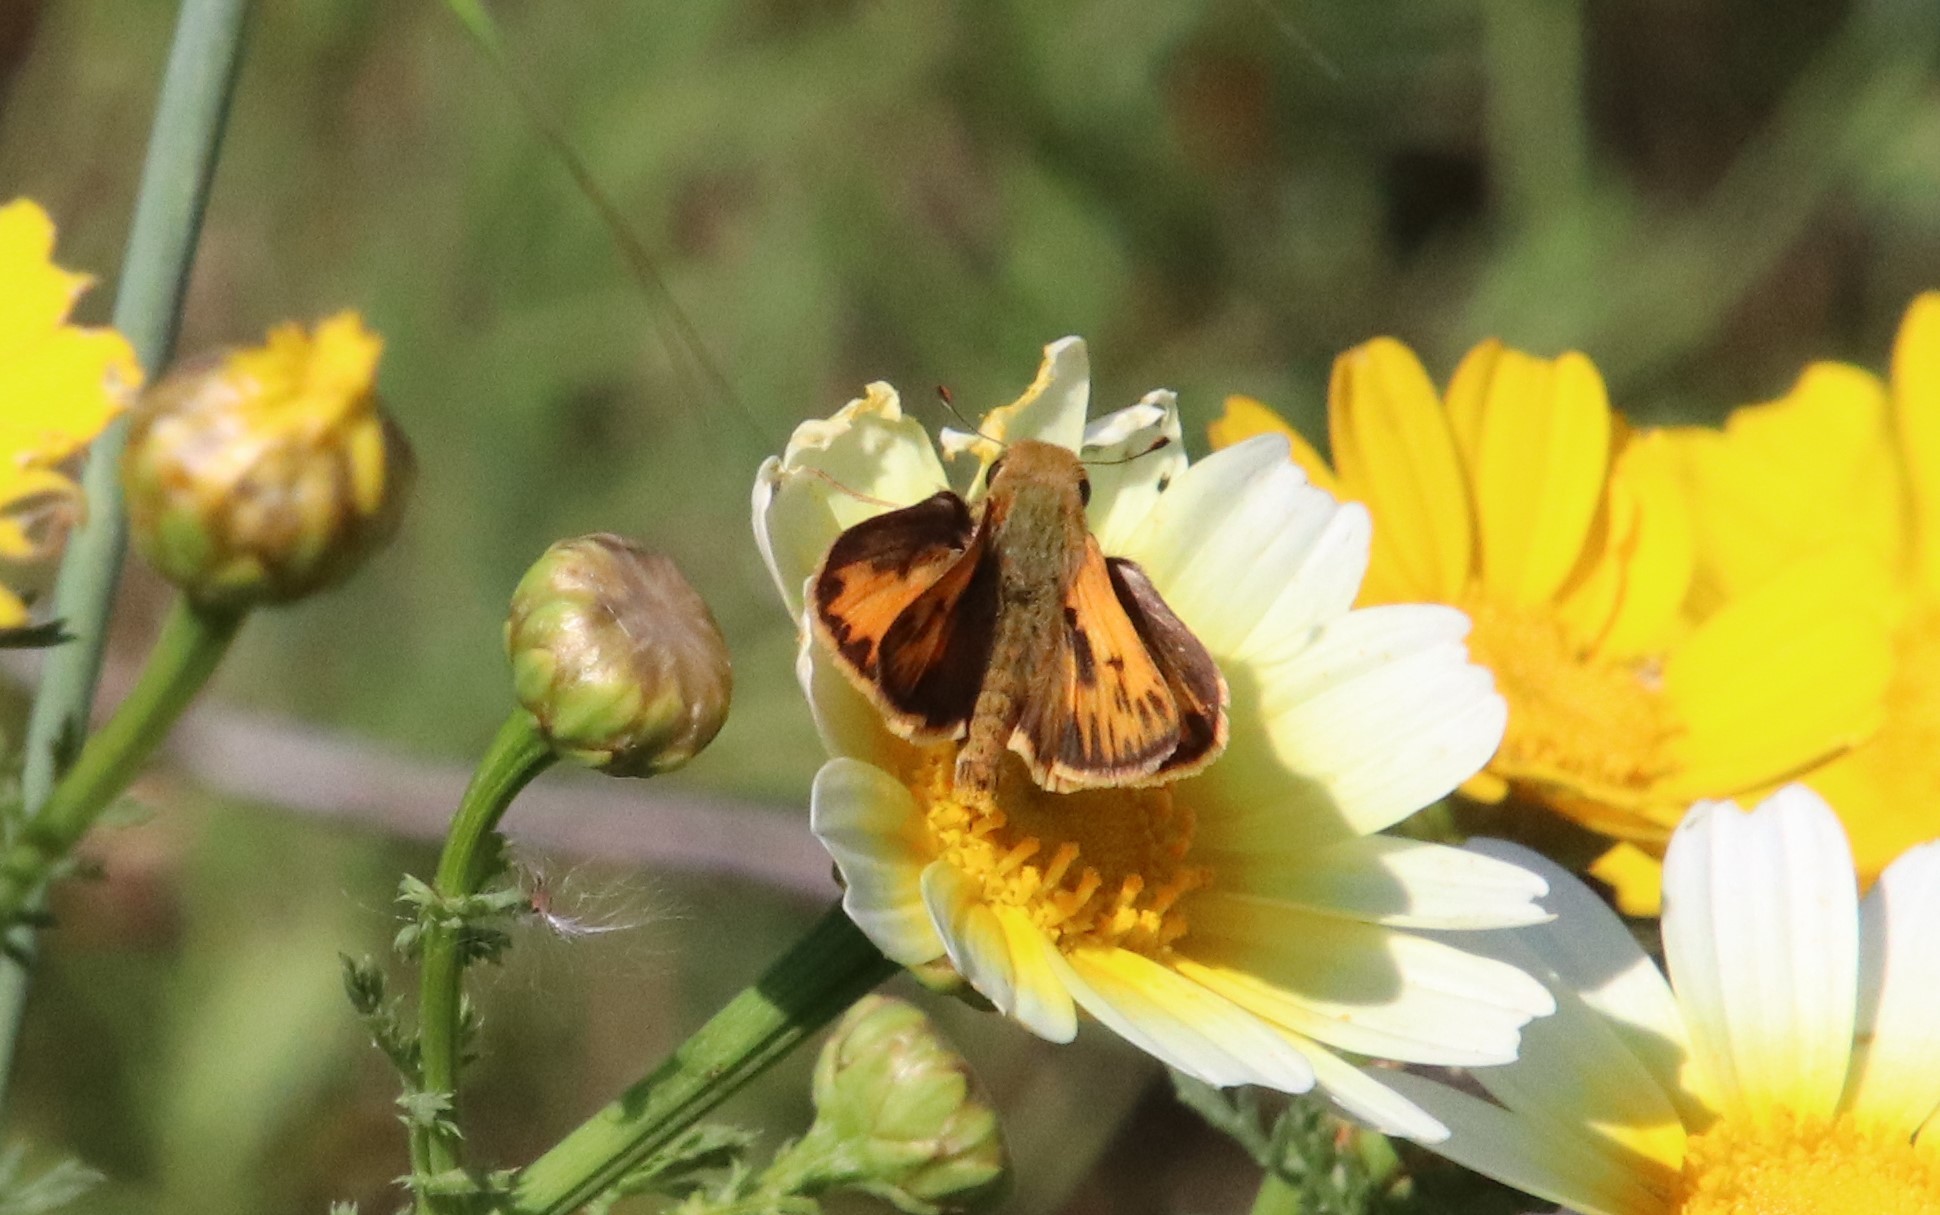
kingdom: Animalia
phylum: Arthropoda
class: Insecta
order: Lepidoptera
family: Hesperiidae
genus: Hylephila
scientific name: Hylephila phyleus
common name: Fiery skipper
